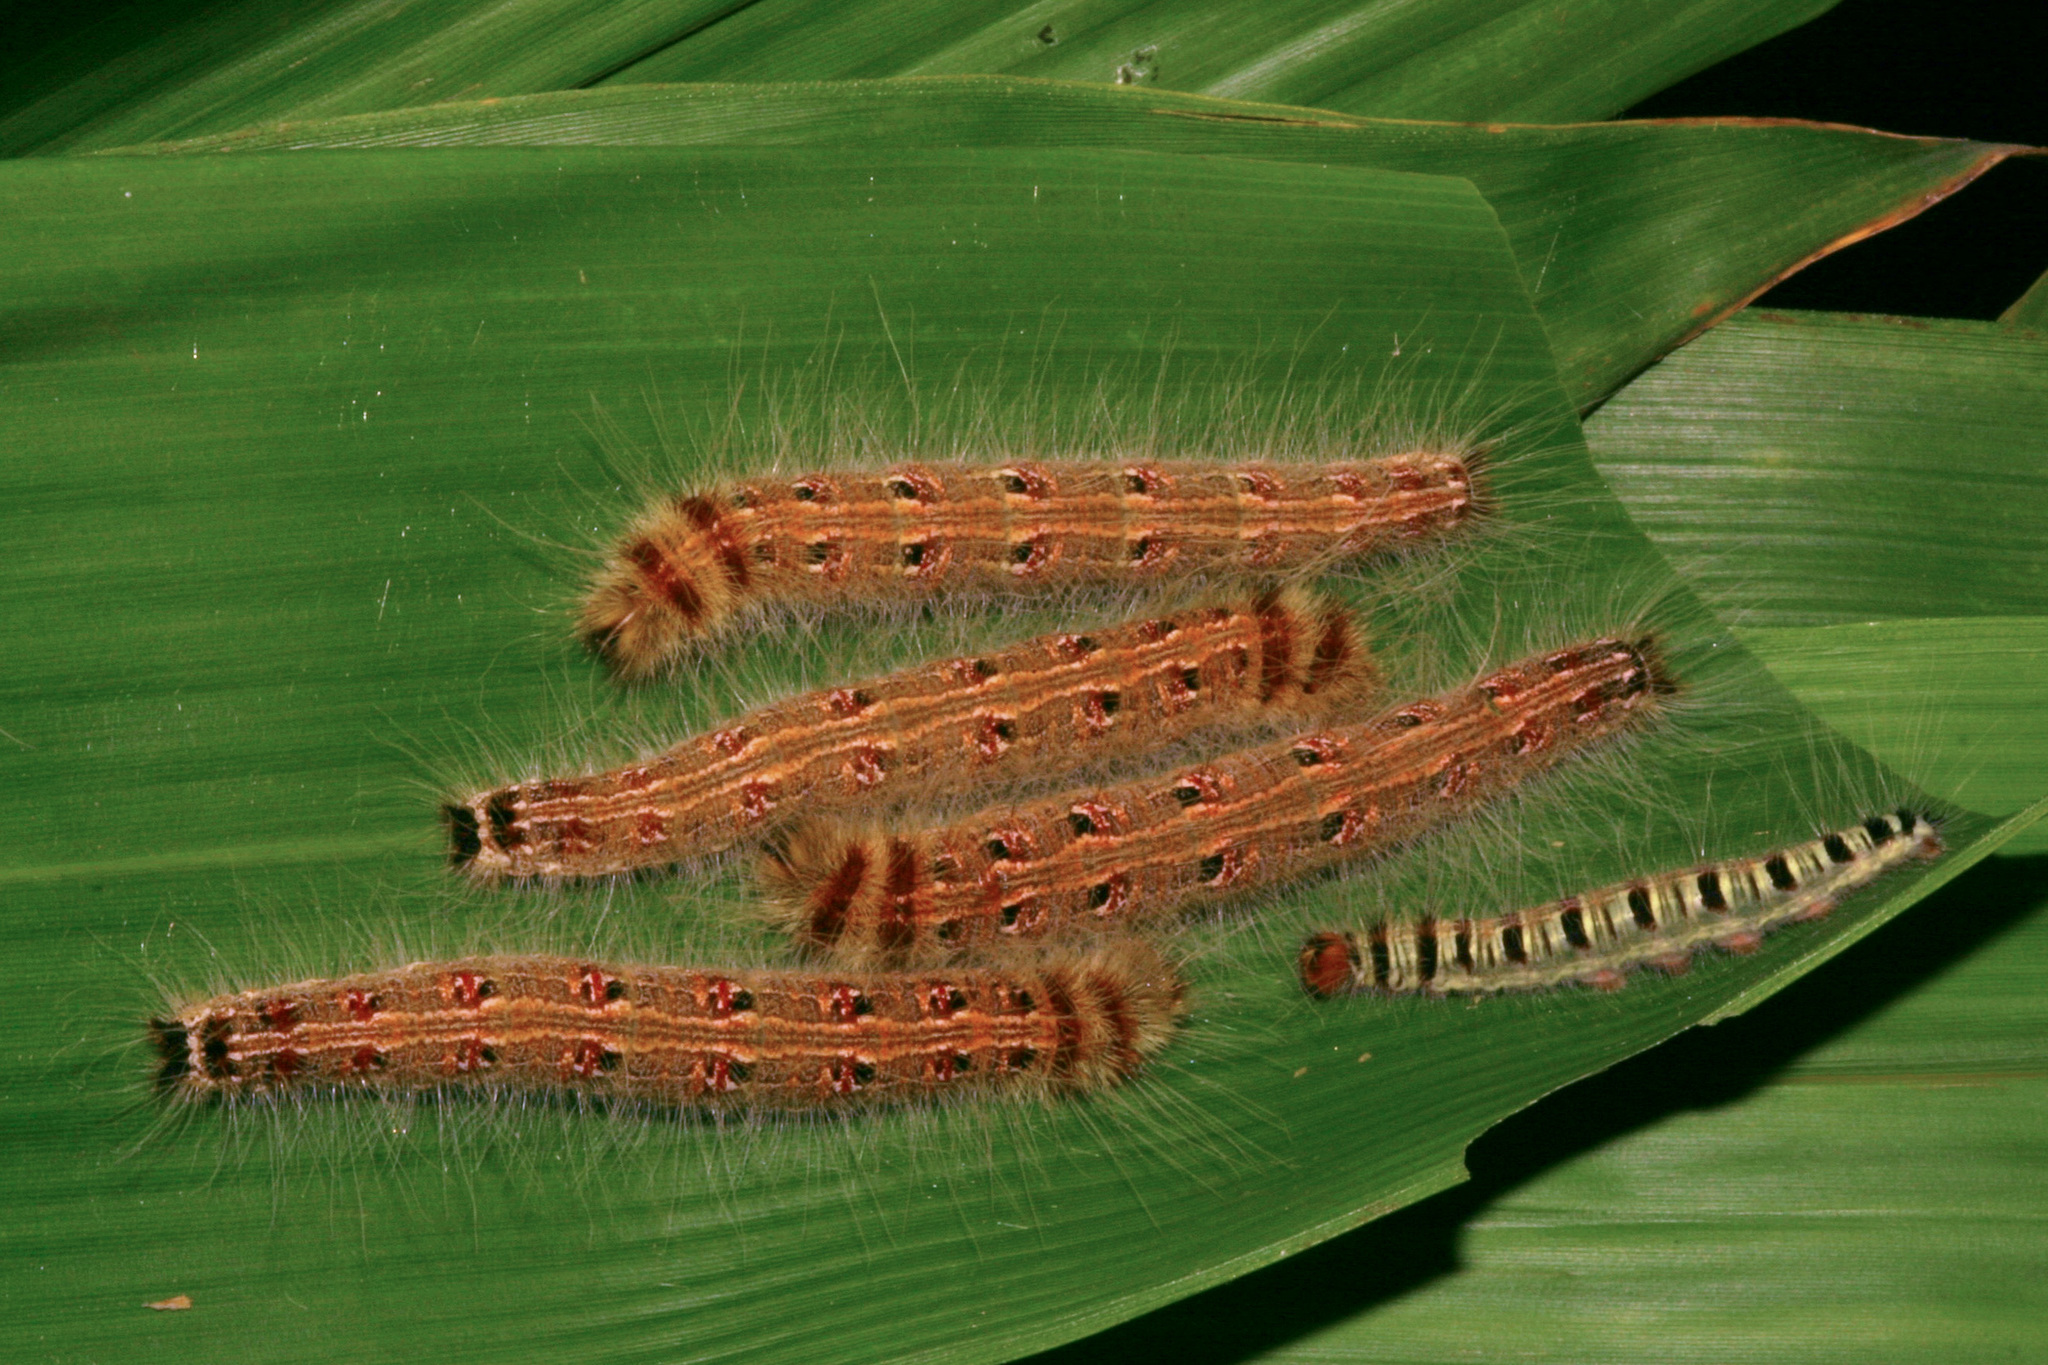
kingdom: Animalia
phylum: Arthropoda
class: Insecta
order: Lepidoptera
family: Nymphalidae
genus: Discophora
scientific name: Discophora sondaica
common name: Common duffer
